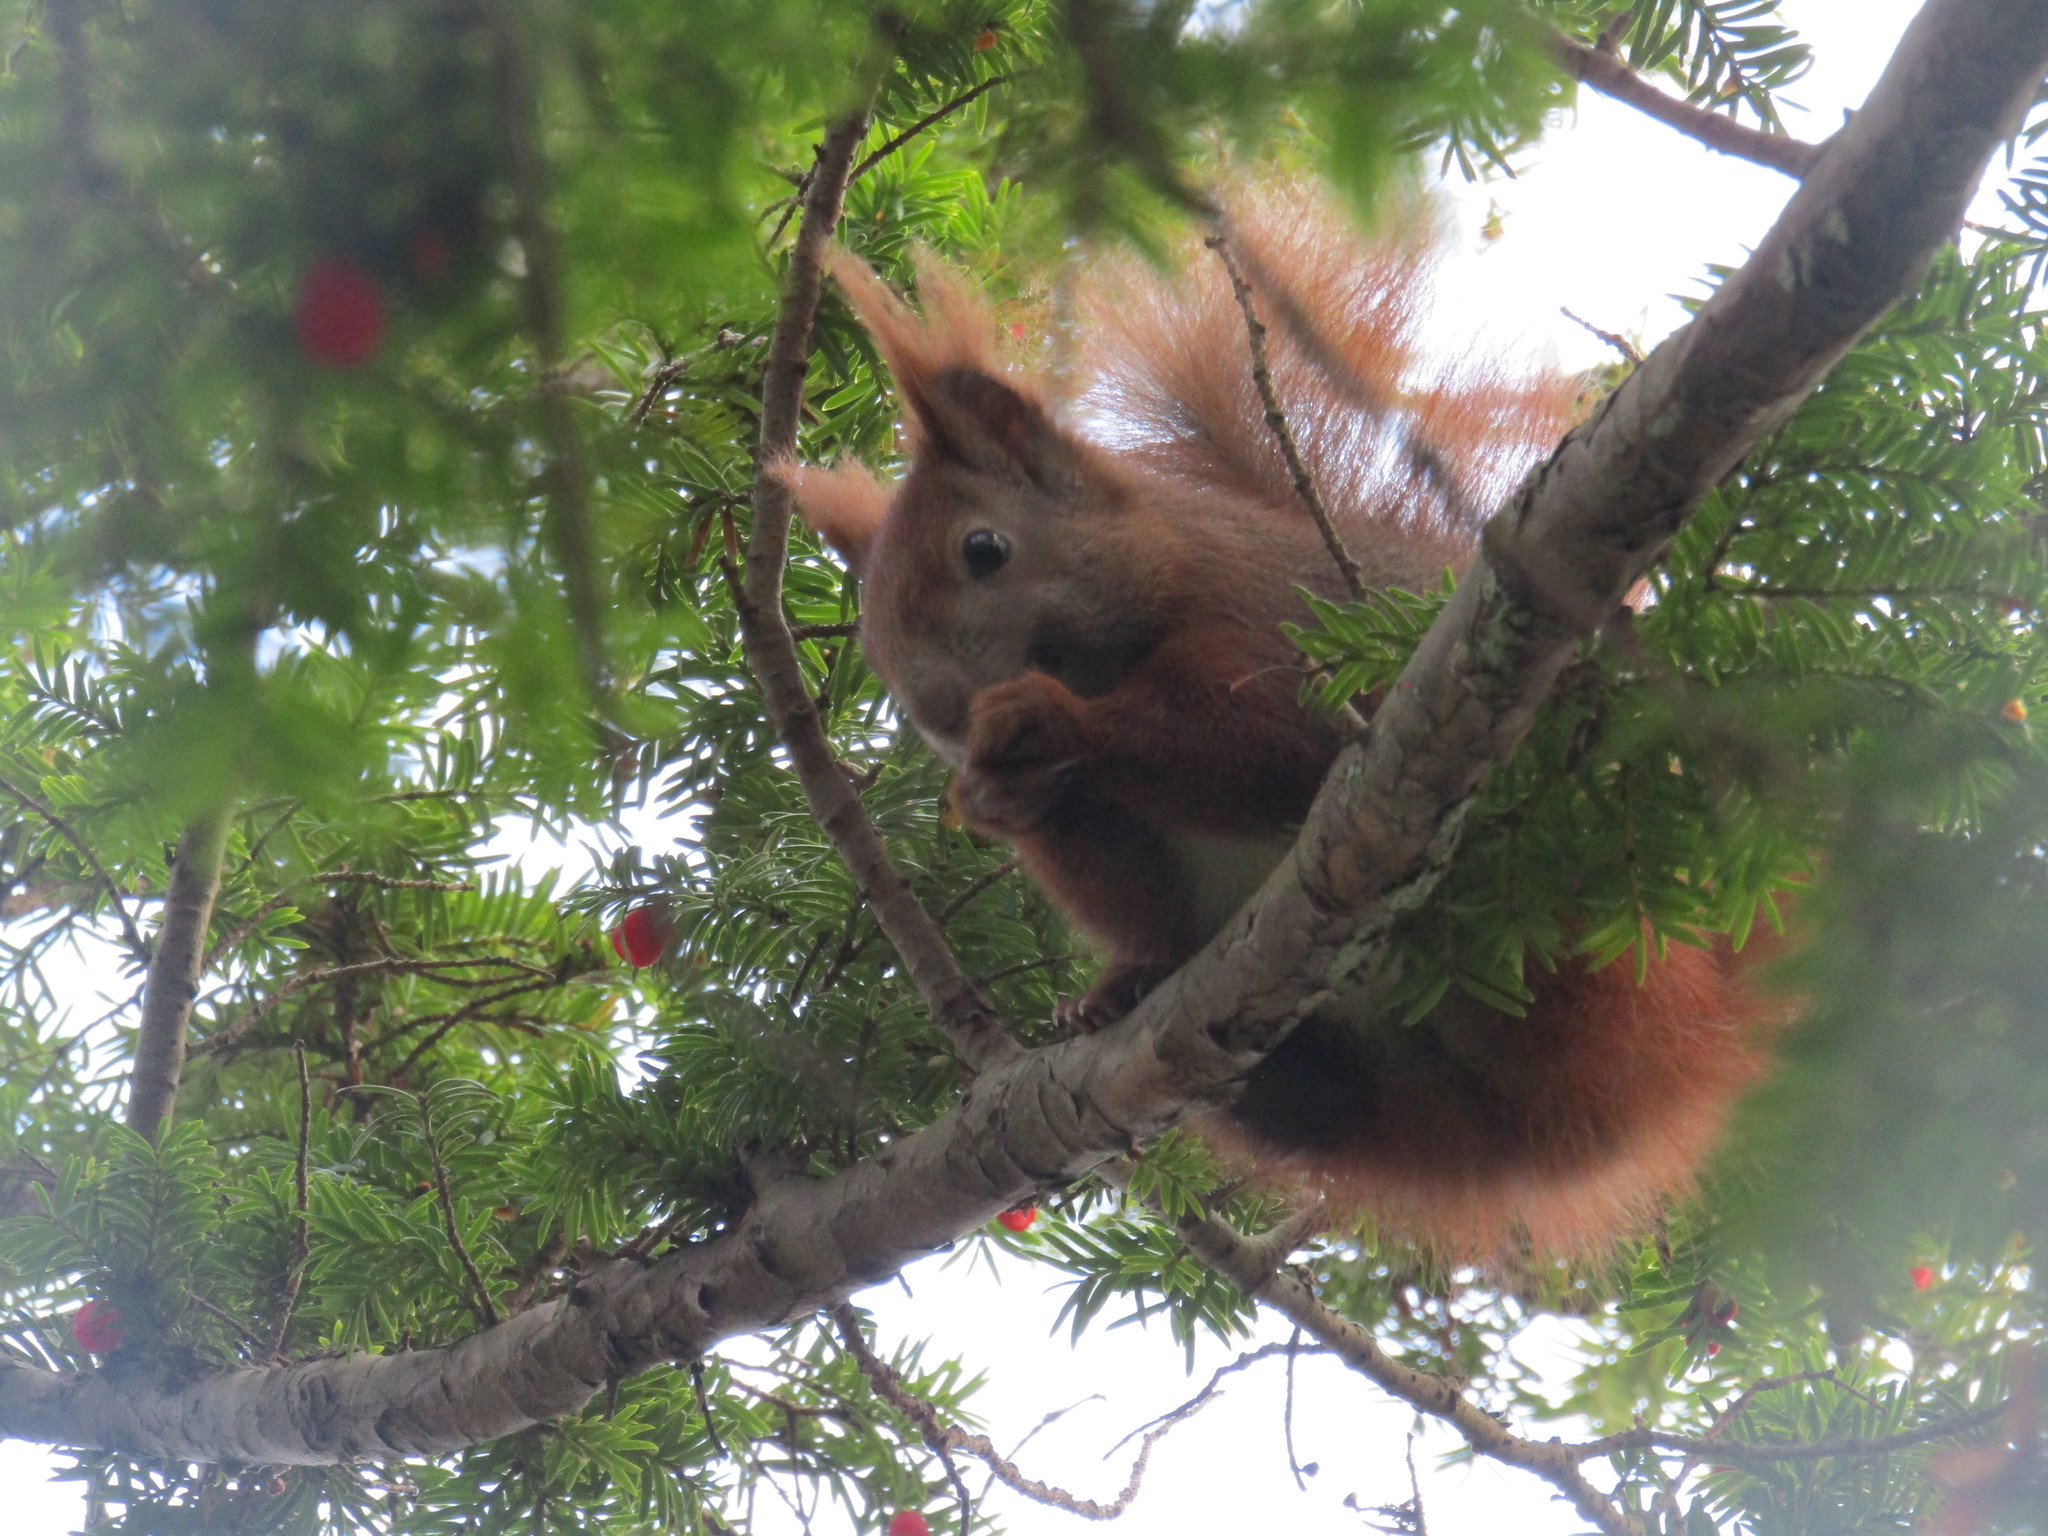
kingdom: Animalia
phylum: Chordata
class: Mammalia
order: Rodentia
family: Sciuridae
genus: Sciurus
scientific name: Sciurus vulgaris
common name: Eurasian red squirrel
